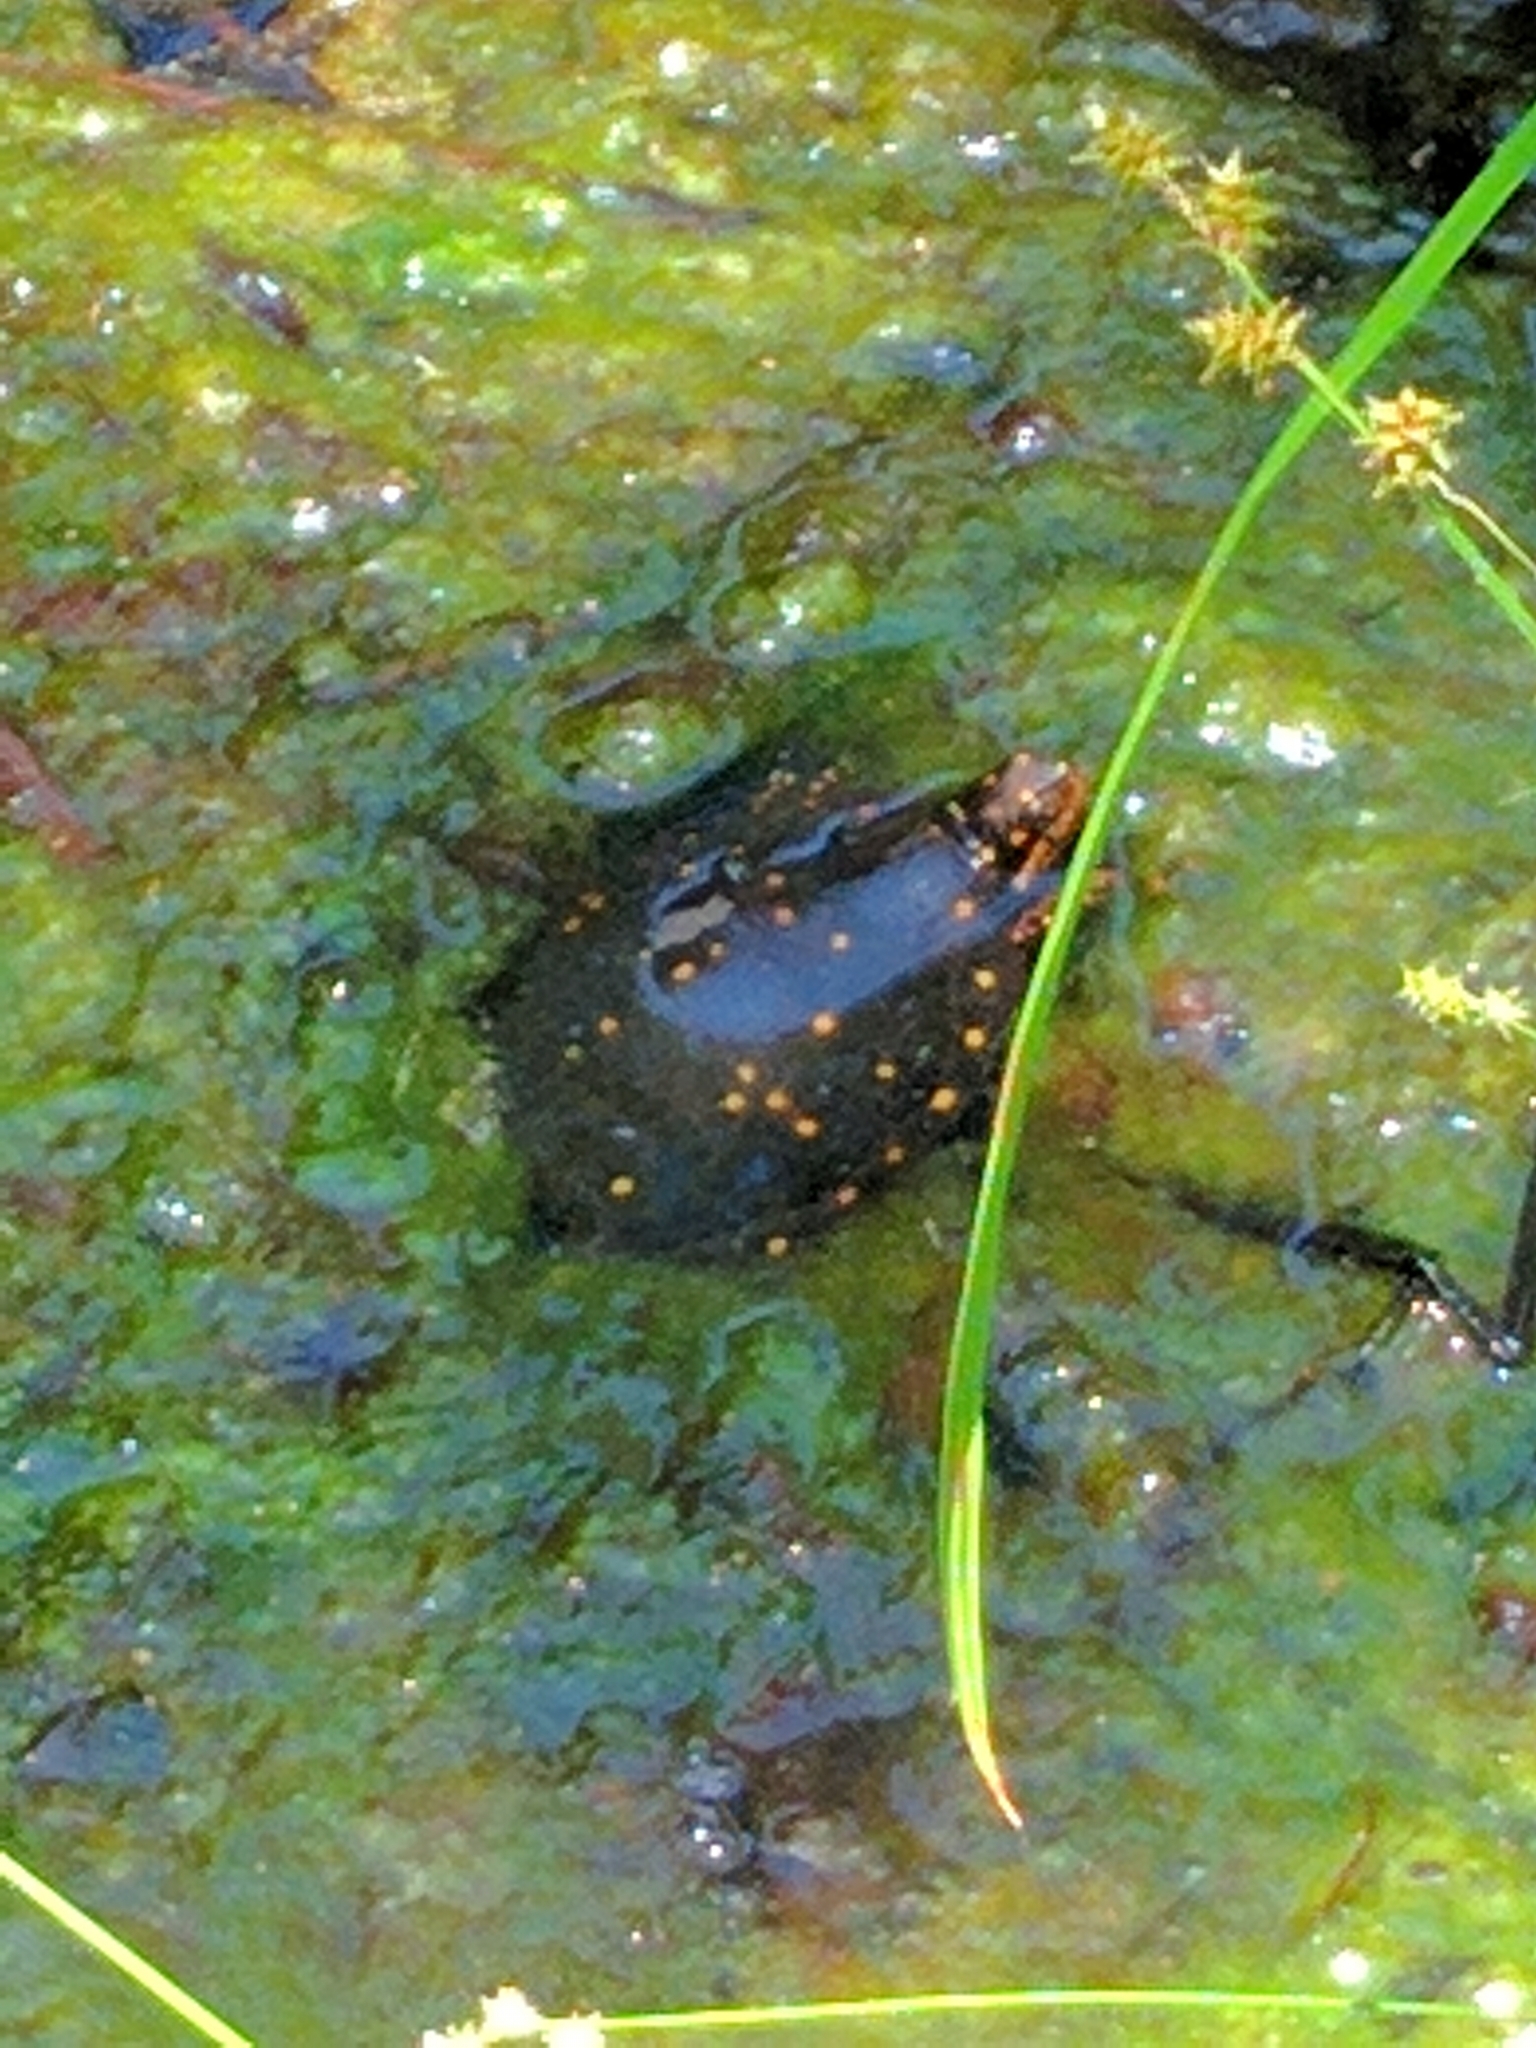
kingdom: Animalia
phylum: Chordata
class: Testudines
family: Emydidae
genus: Clemmys
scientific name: Clemmys guttata
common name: Spotted turtle
